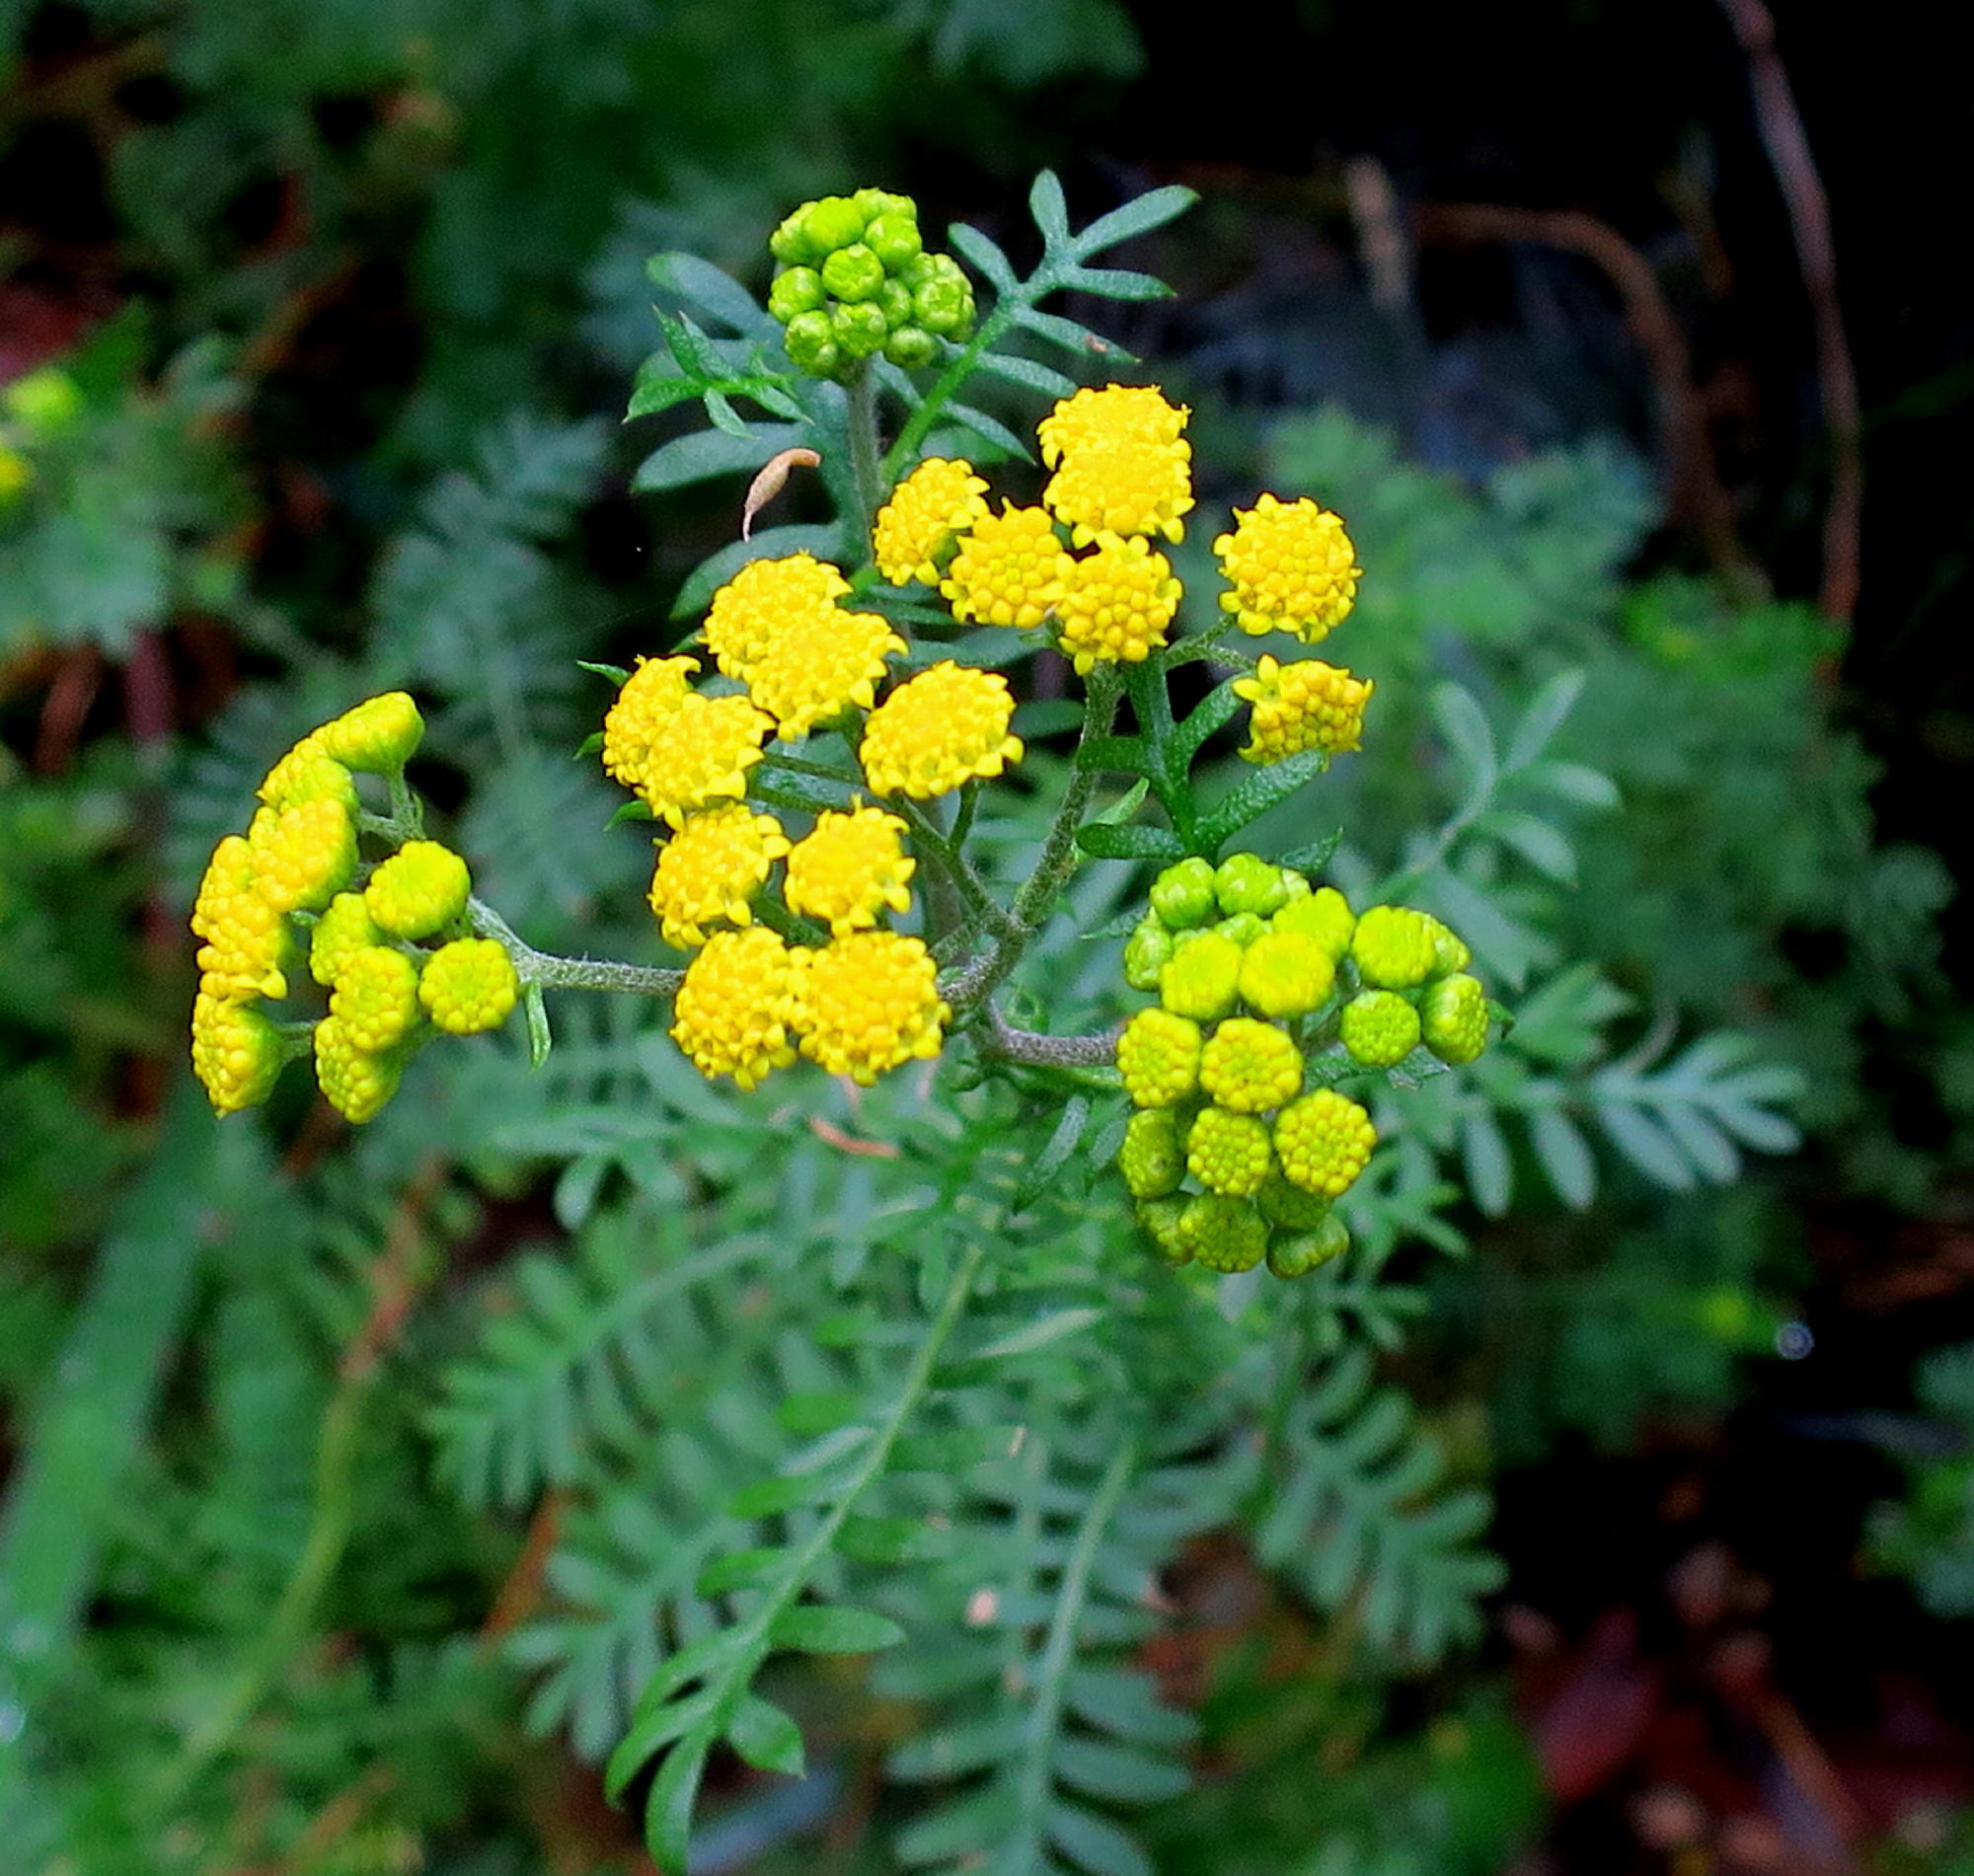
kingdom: Plantae
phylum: Tracheophyta
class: Magnoliopsida
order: Asterales
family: Asteraceae
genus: Hippia
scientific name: Hippia frutescens
